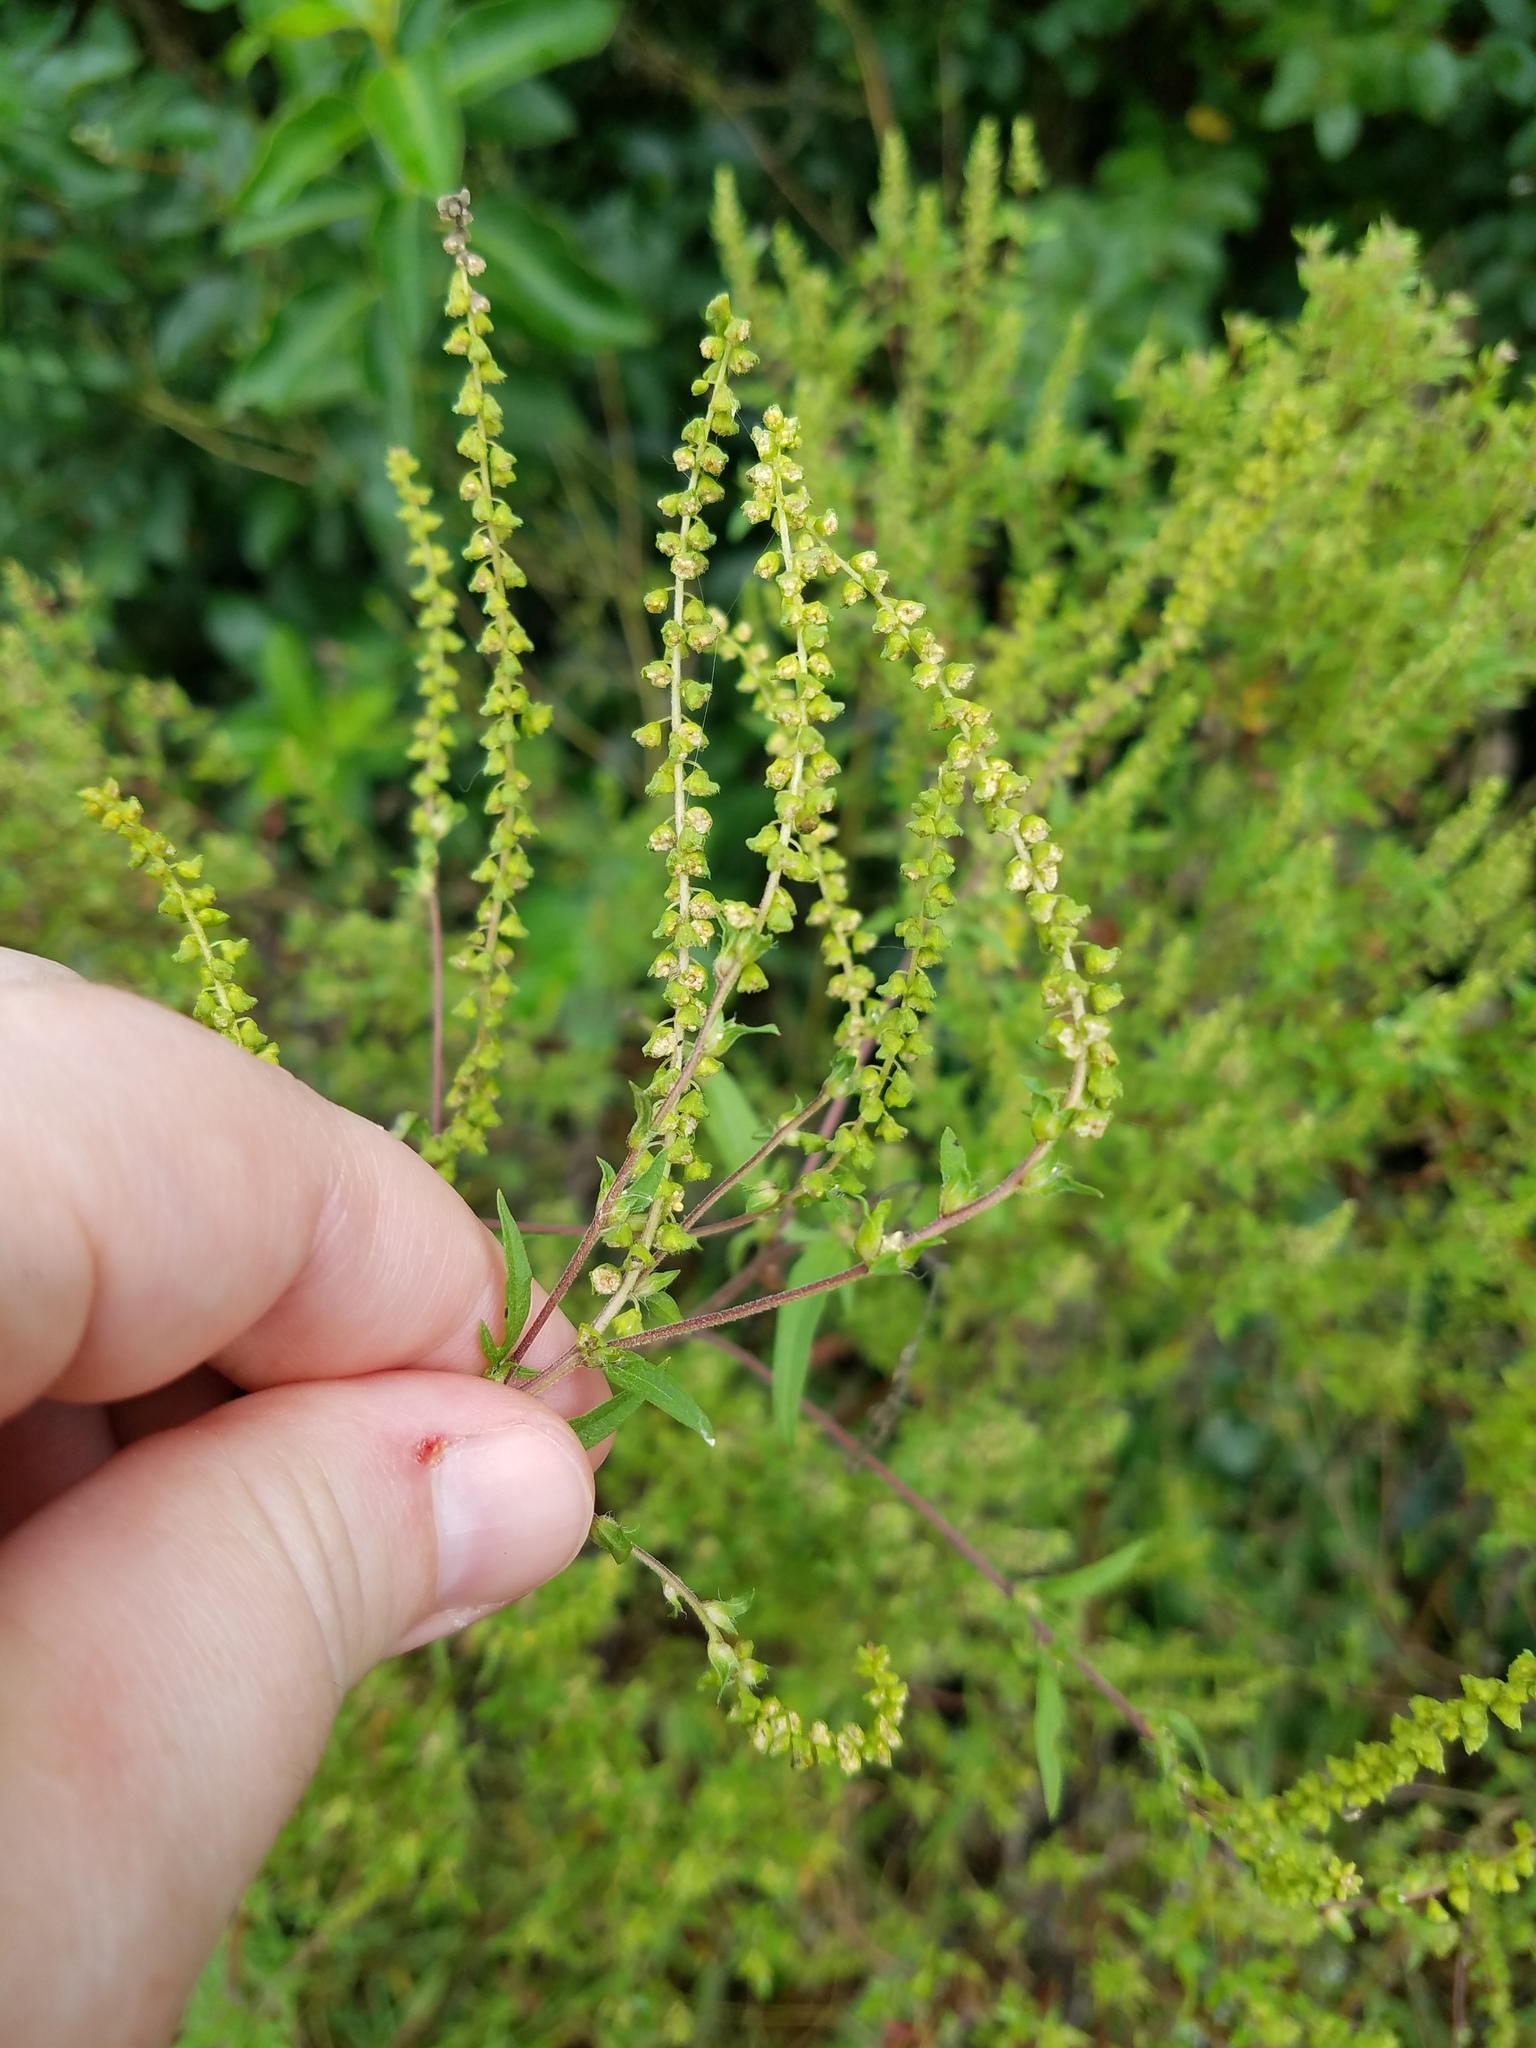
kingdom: Plantae
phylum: Tracheophyta
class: Magnoliopsida
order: Asterales
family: Asteraceae
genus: Ambrosia
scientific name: Ambrosia artemisiifolia
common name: Annual ragweed
